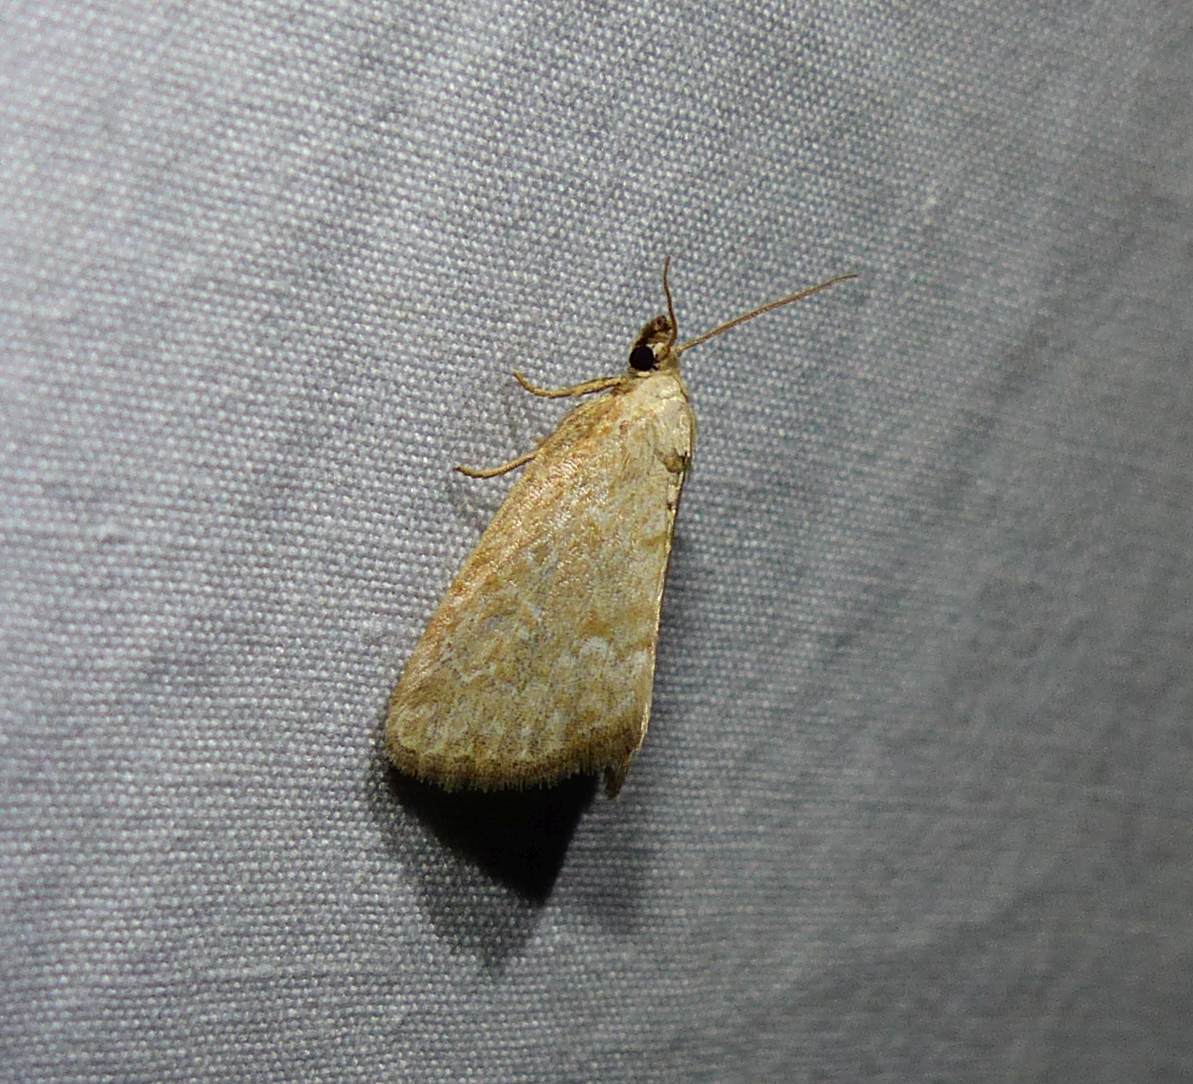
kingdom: Animalia
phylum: Arthropoda
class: Insecta
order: Lepidoptera
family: Noctuidae
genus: Protodeltote
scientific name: Protodeltote albidula
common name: Pale glyph
